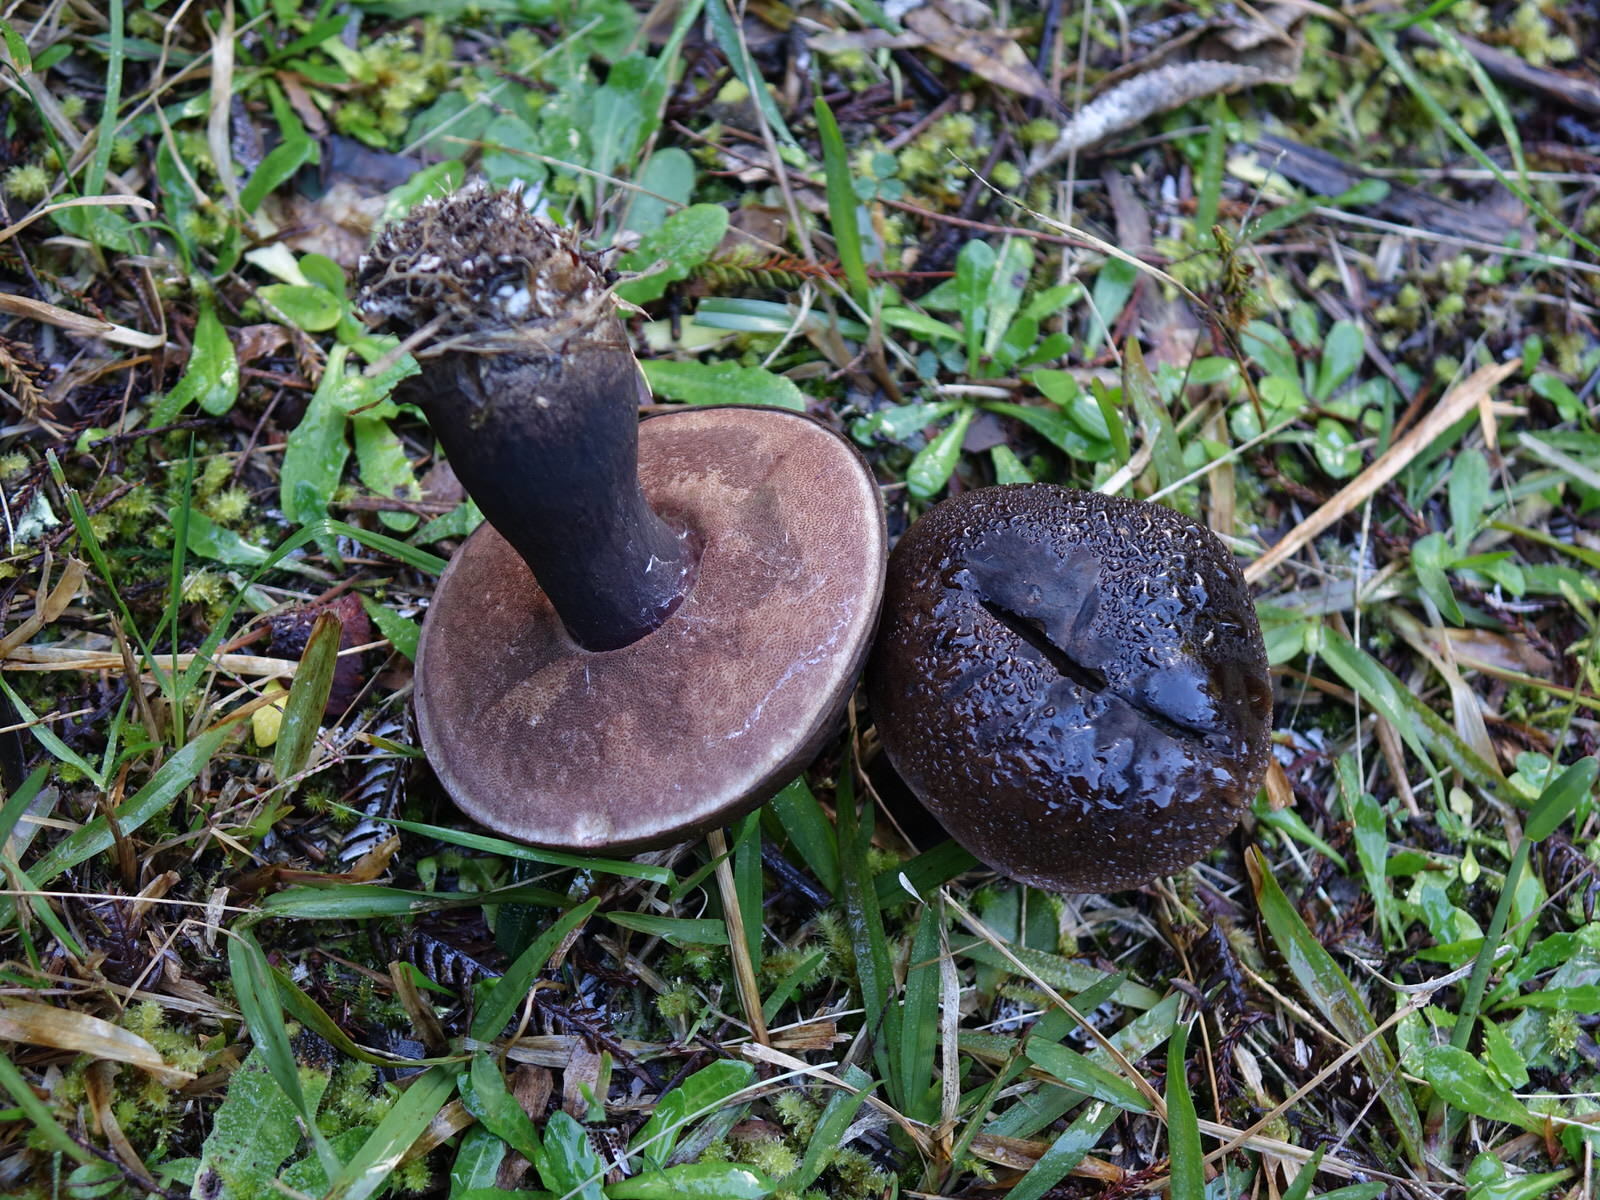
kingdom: Fungi
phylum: Basidiomycota
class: Agaricomycetes
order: Boletales
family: Boletaceae
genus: Porphyrellus
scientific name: Porphyrellus formosus
